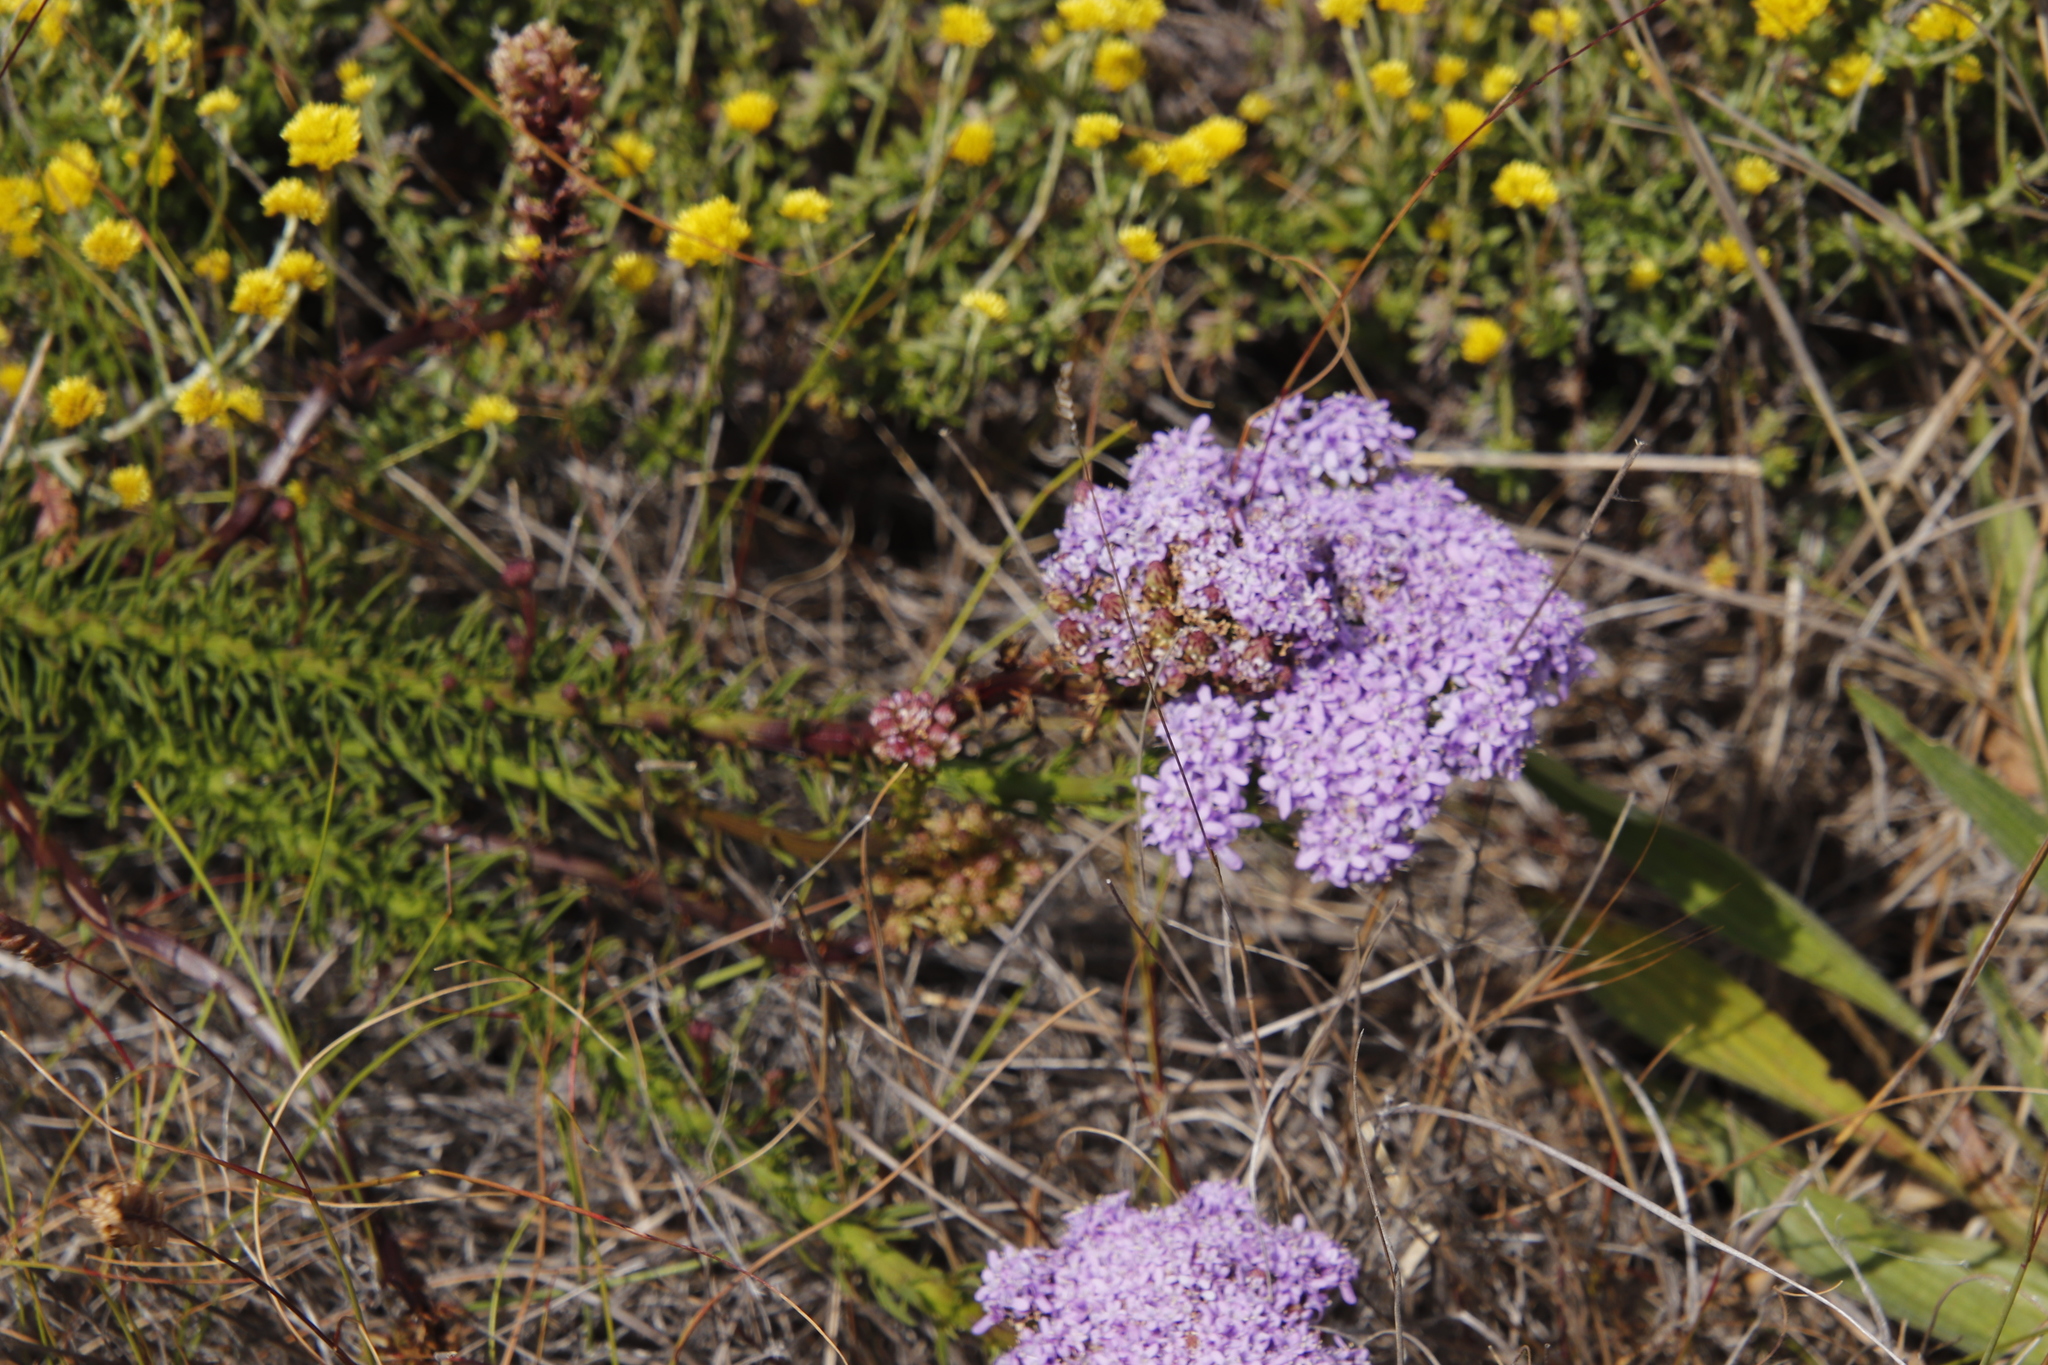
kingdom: Plantae
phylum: Tracheophyta
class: Magnoliopsida
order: Lamiales
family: Scrophulariaceae
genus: Pseudoselago
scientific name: Pseudoselago spuria
